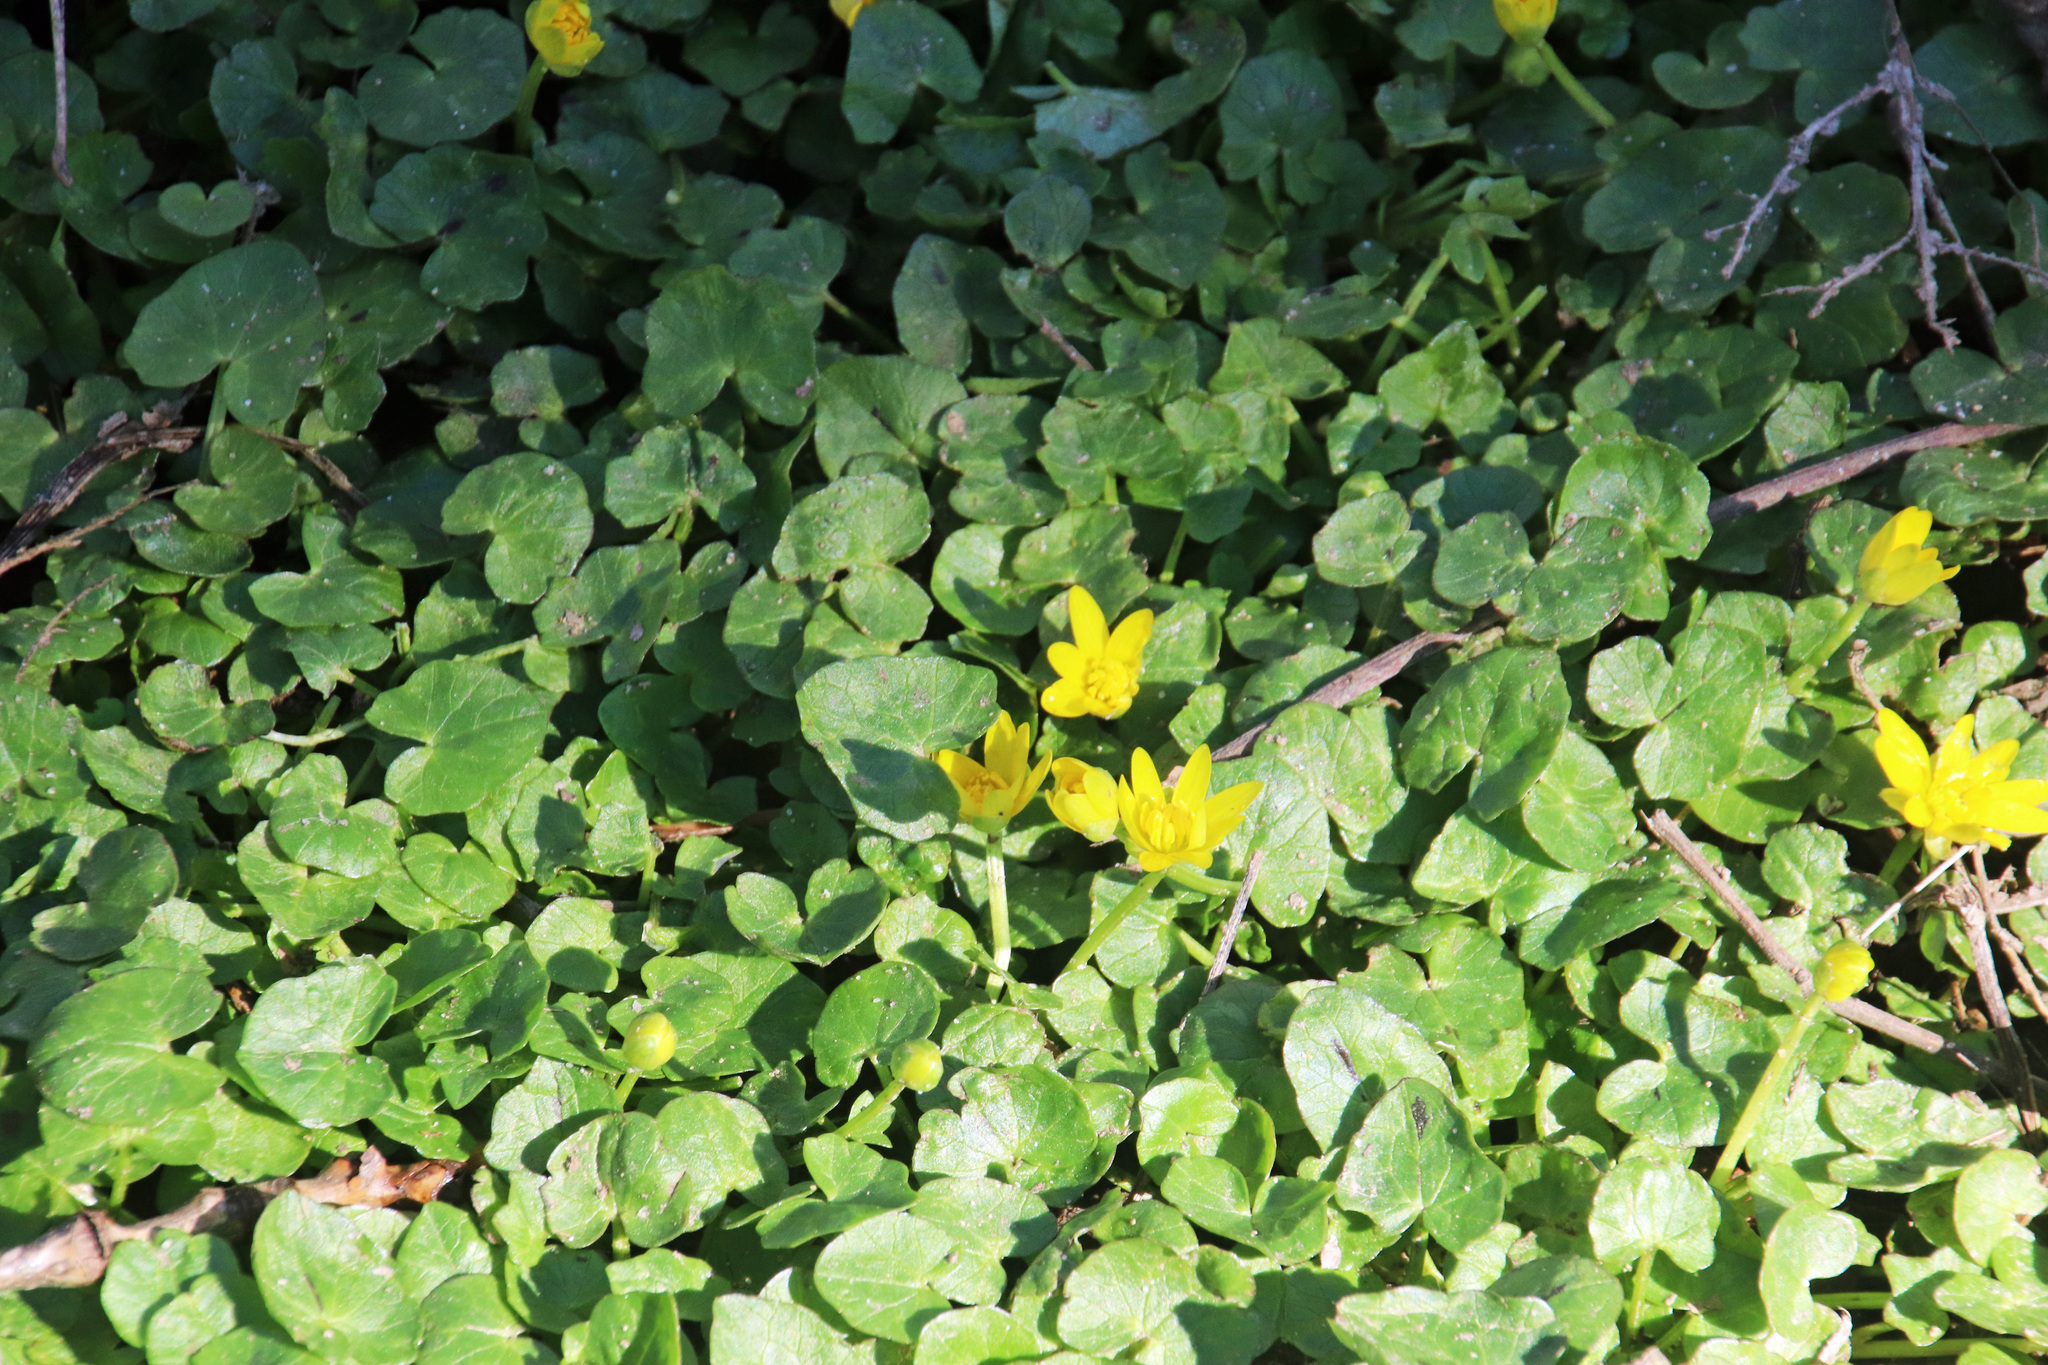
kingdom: Plantae
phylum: Tracheophyta
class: Magnoliopsida
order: Ranunculales
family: Ranunculaceae
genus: Ficaria
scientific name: Ficaria verna
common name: Lesser celandine
